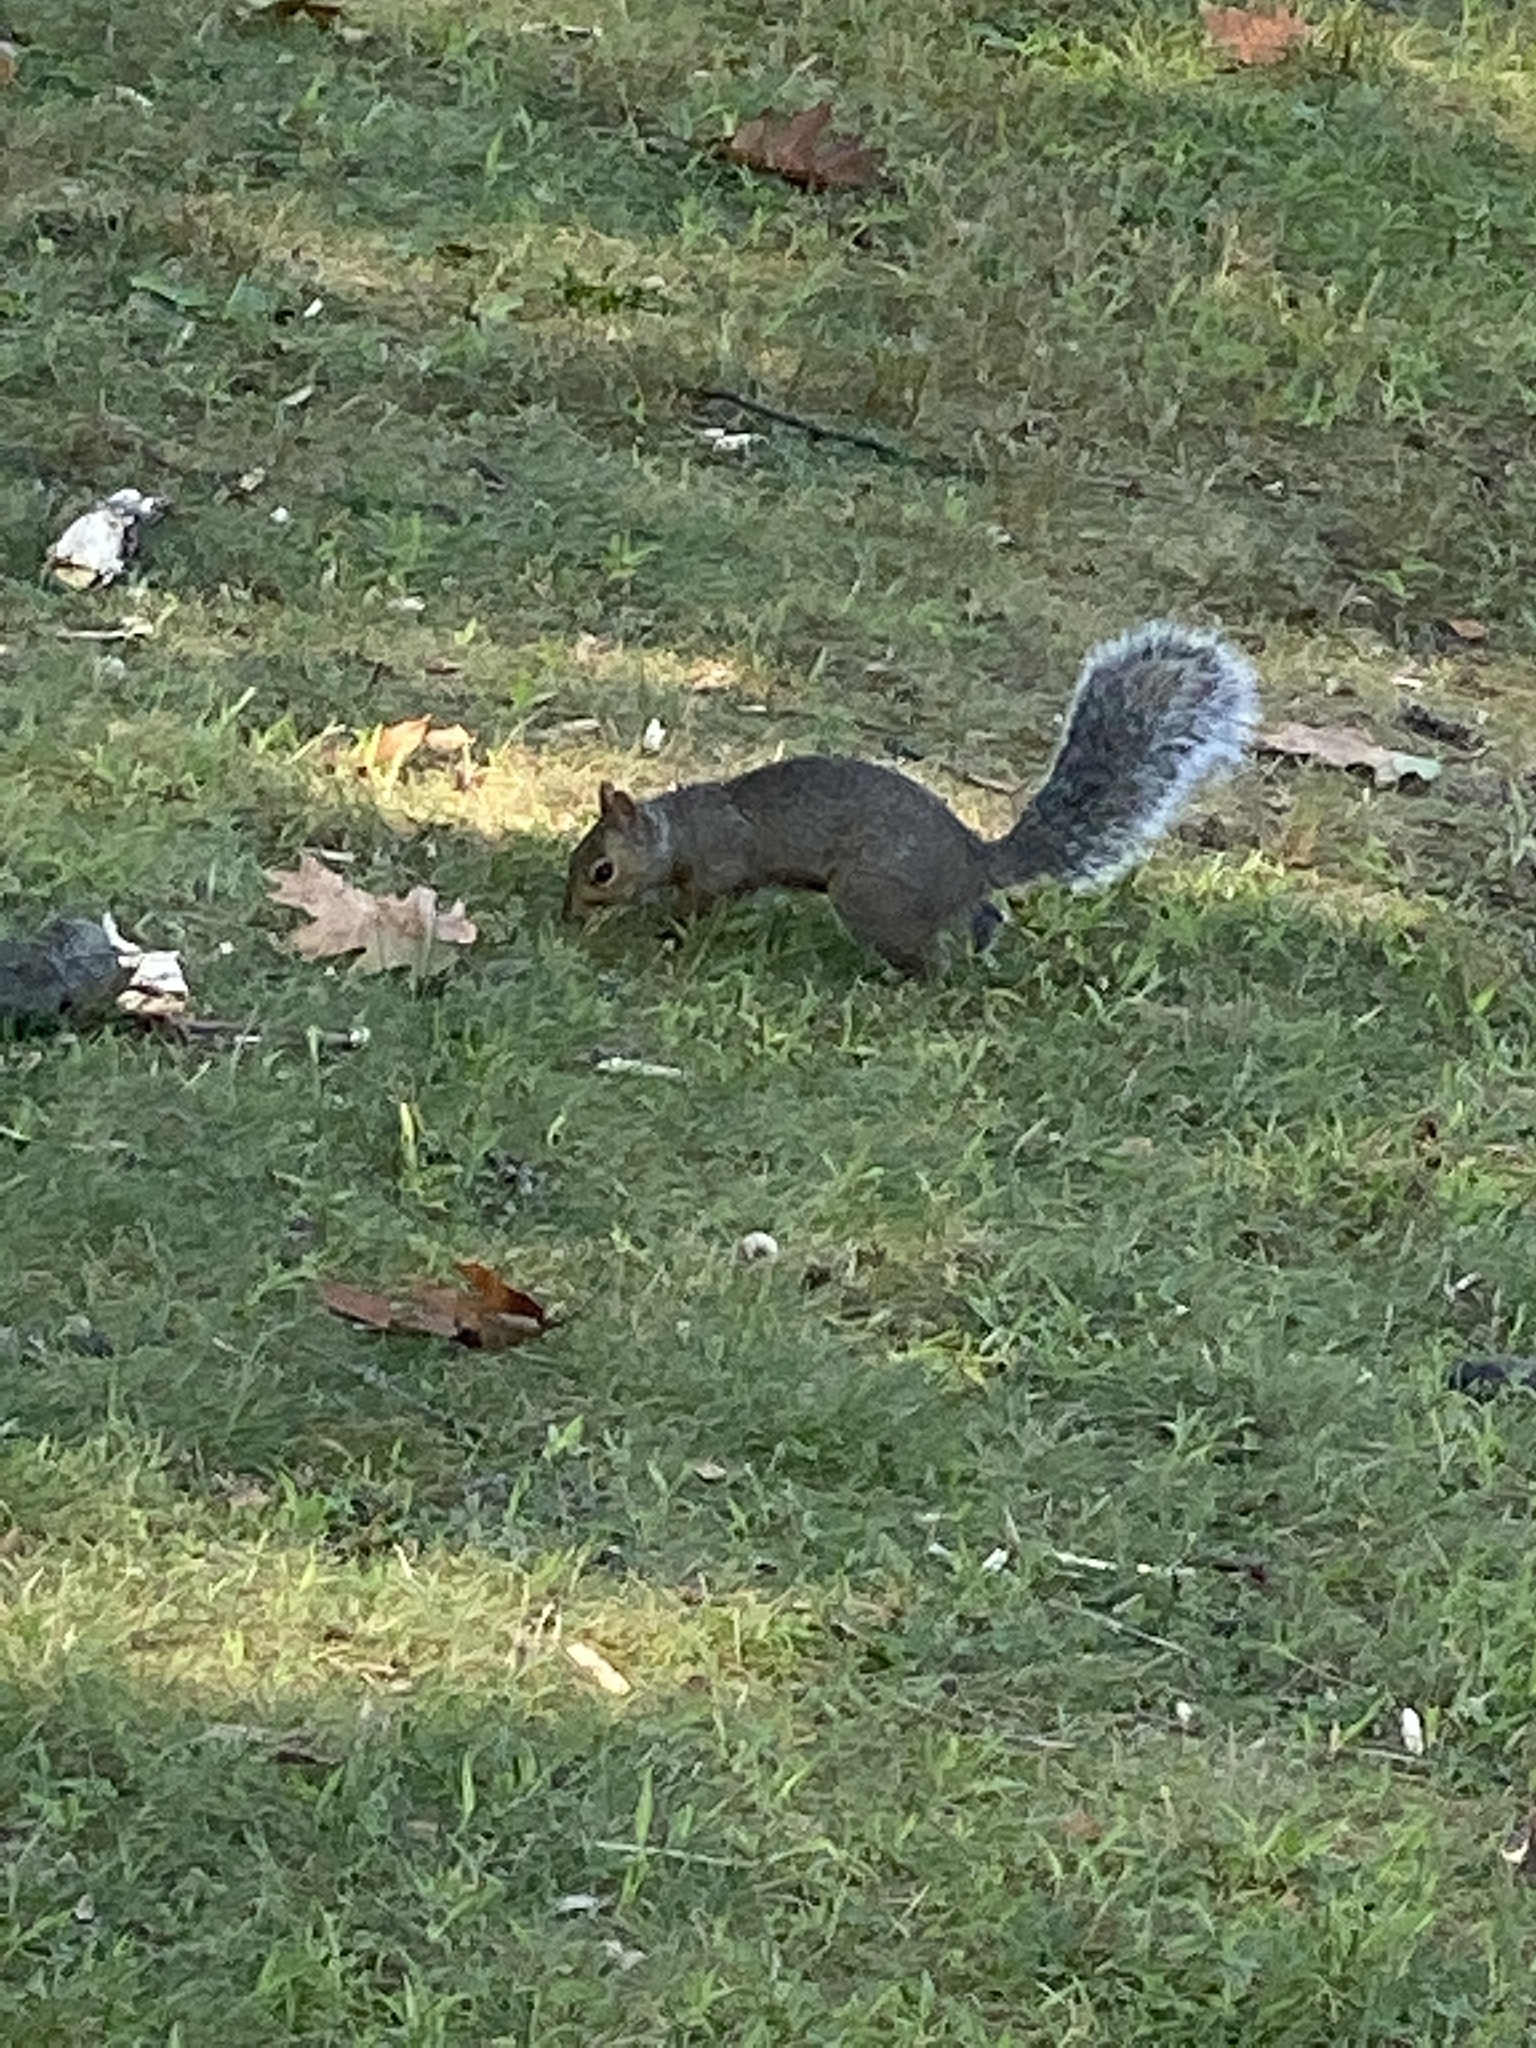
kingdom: Animalia
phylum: Chordata
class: Mammalia
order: Rodentia
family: Sciuridae
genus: Sciurus
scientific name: Sciurus carolinensis
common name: Eastern gray squirrel
